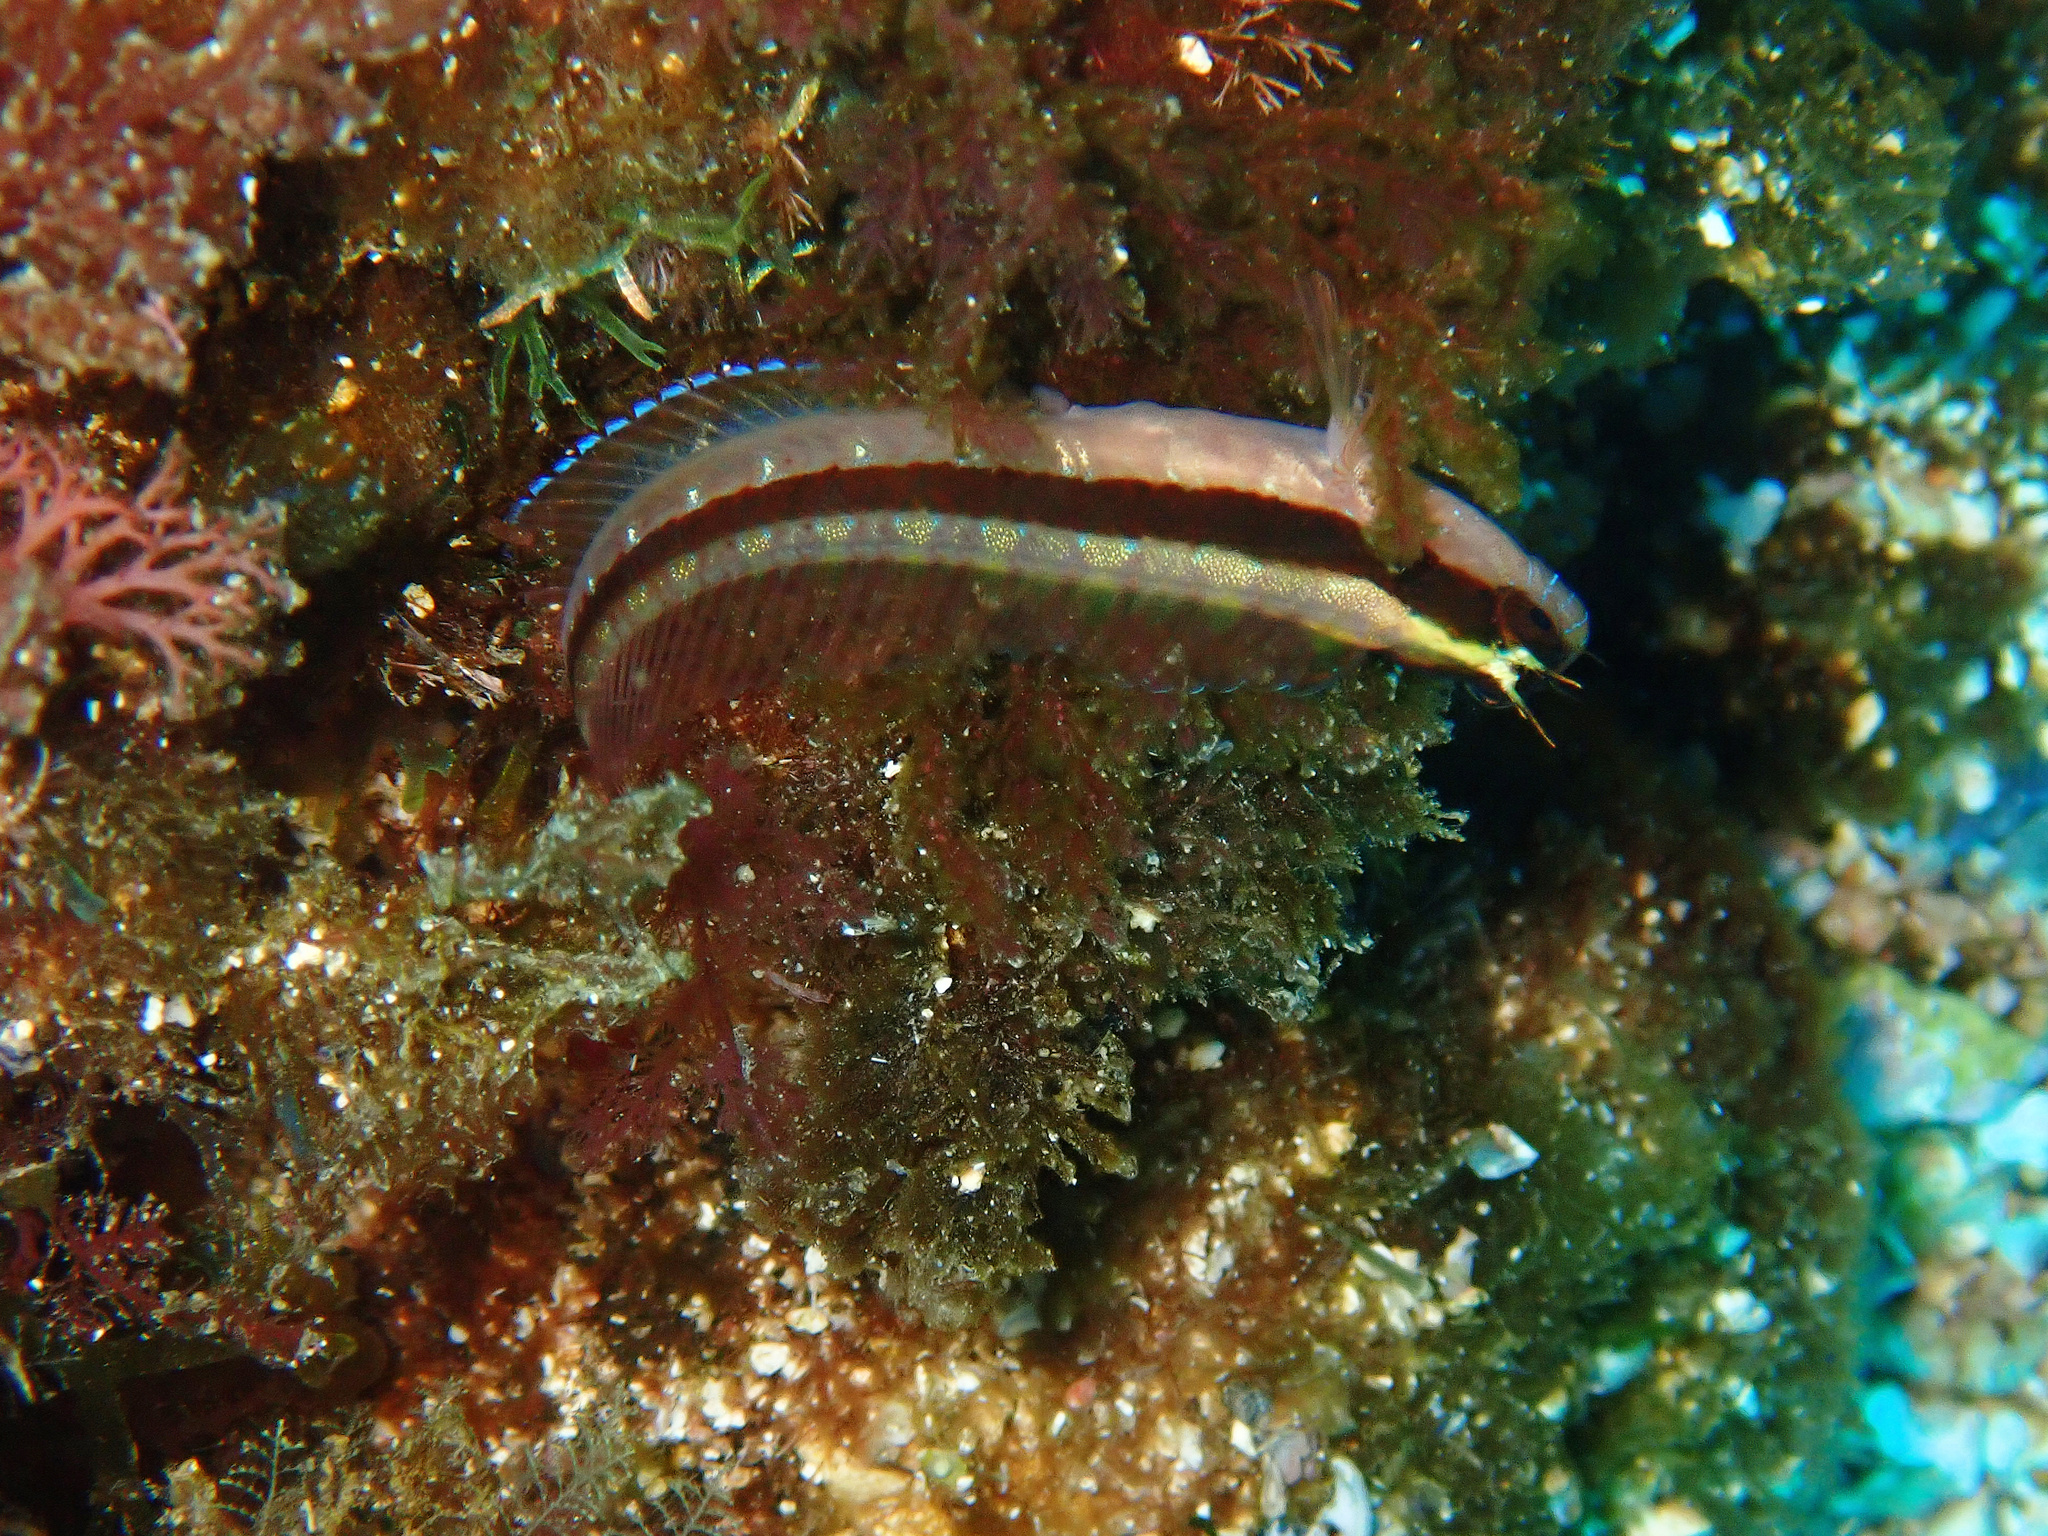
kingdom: Animalia
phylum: Chordata
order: Perciformes
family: Blenniidae
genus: Parablennius
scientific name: Parablennius rouxi
